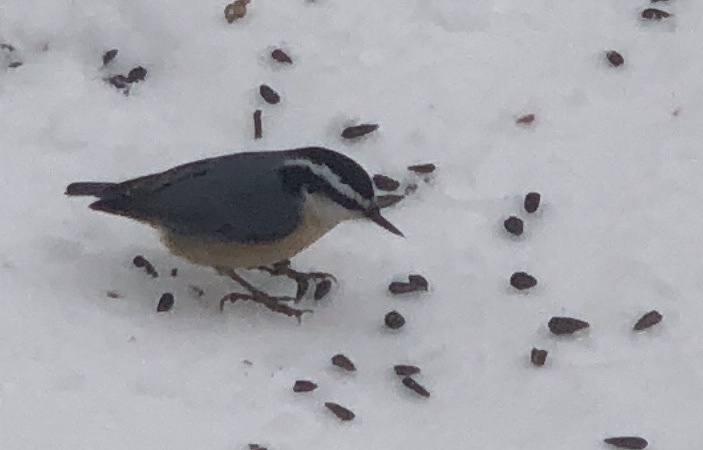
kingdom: Animalia
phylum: Chordata
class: Aves
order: Passeriformes
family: Sittidae
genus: Sitta
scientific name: Sitta canadensis
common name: Red-breasted nuthatch
